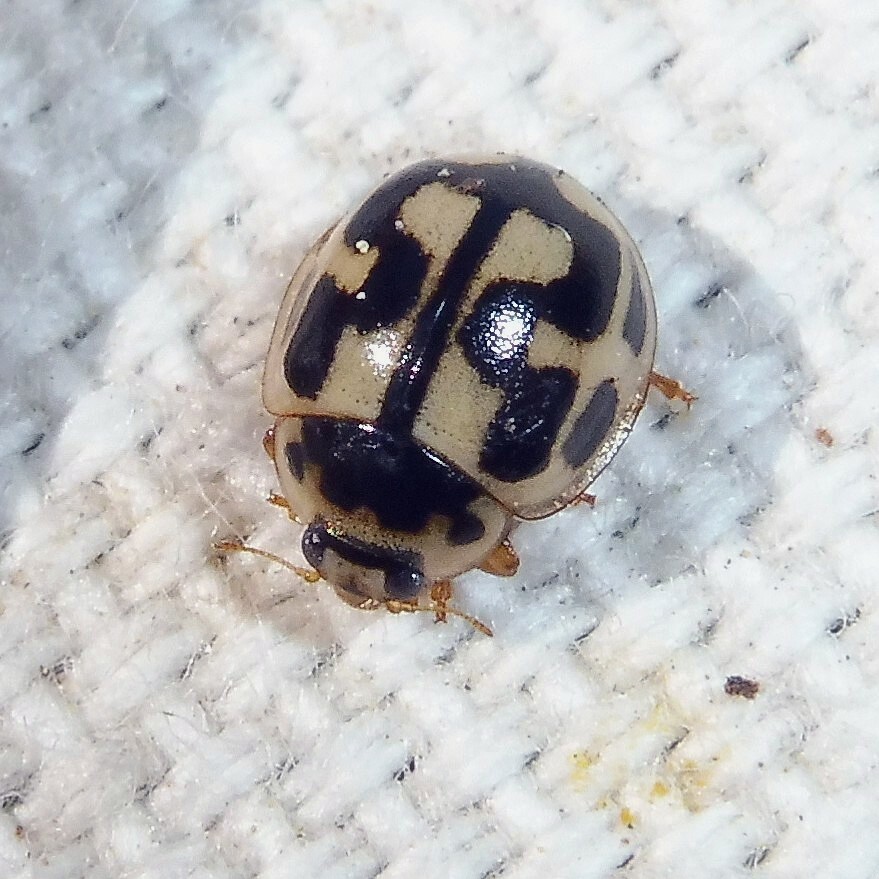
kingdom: Animalia
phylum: Arthropoda
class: Insecta
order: Coleoptera
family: Coccinellidae
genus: Propylaea
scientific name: Propylaea quatuordecimpunctata
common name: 14-spotted ladybird beetle
